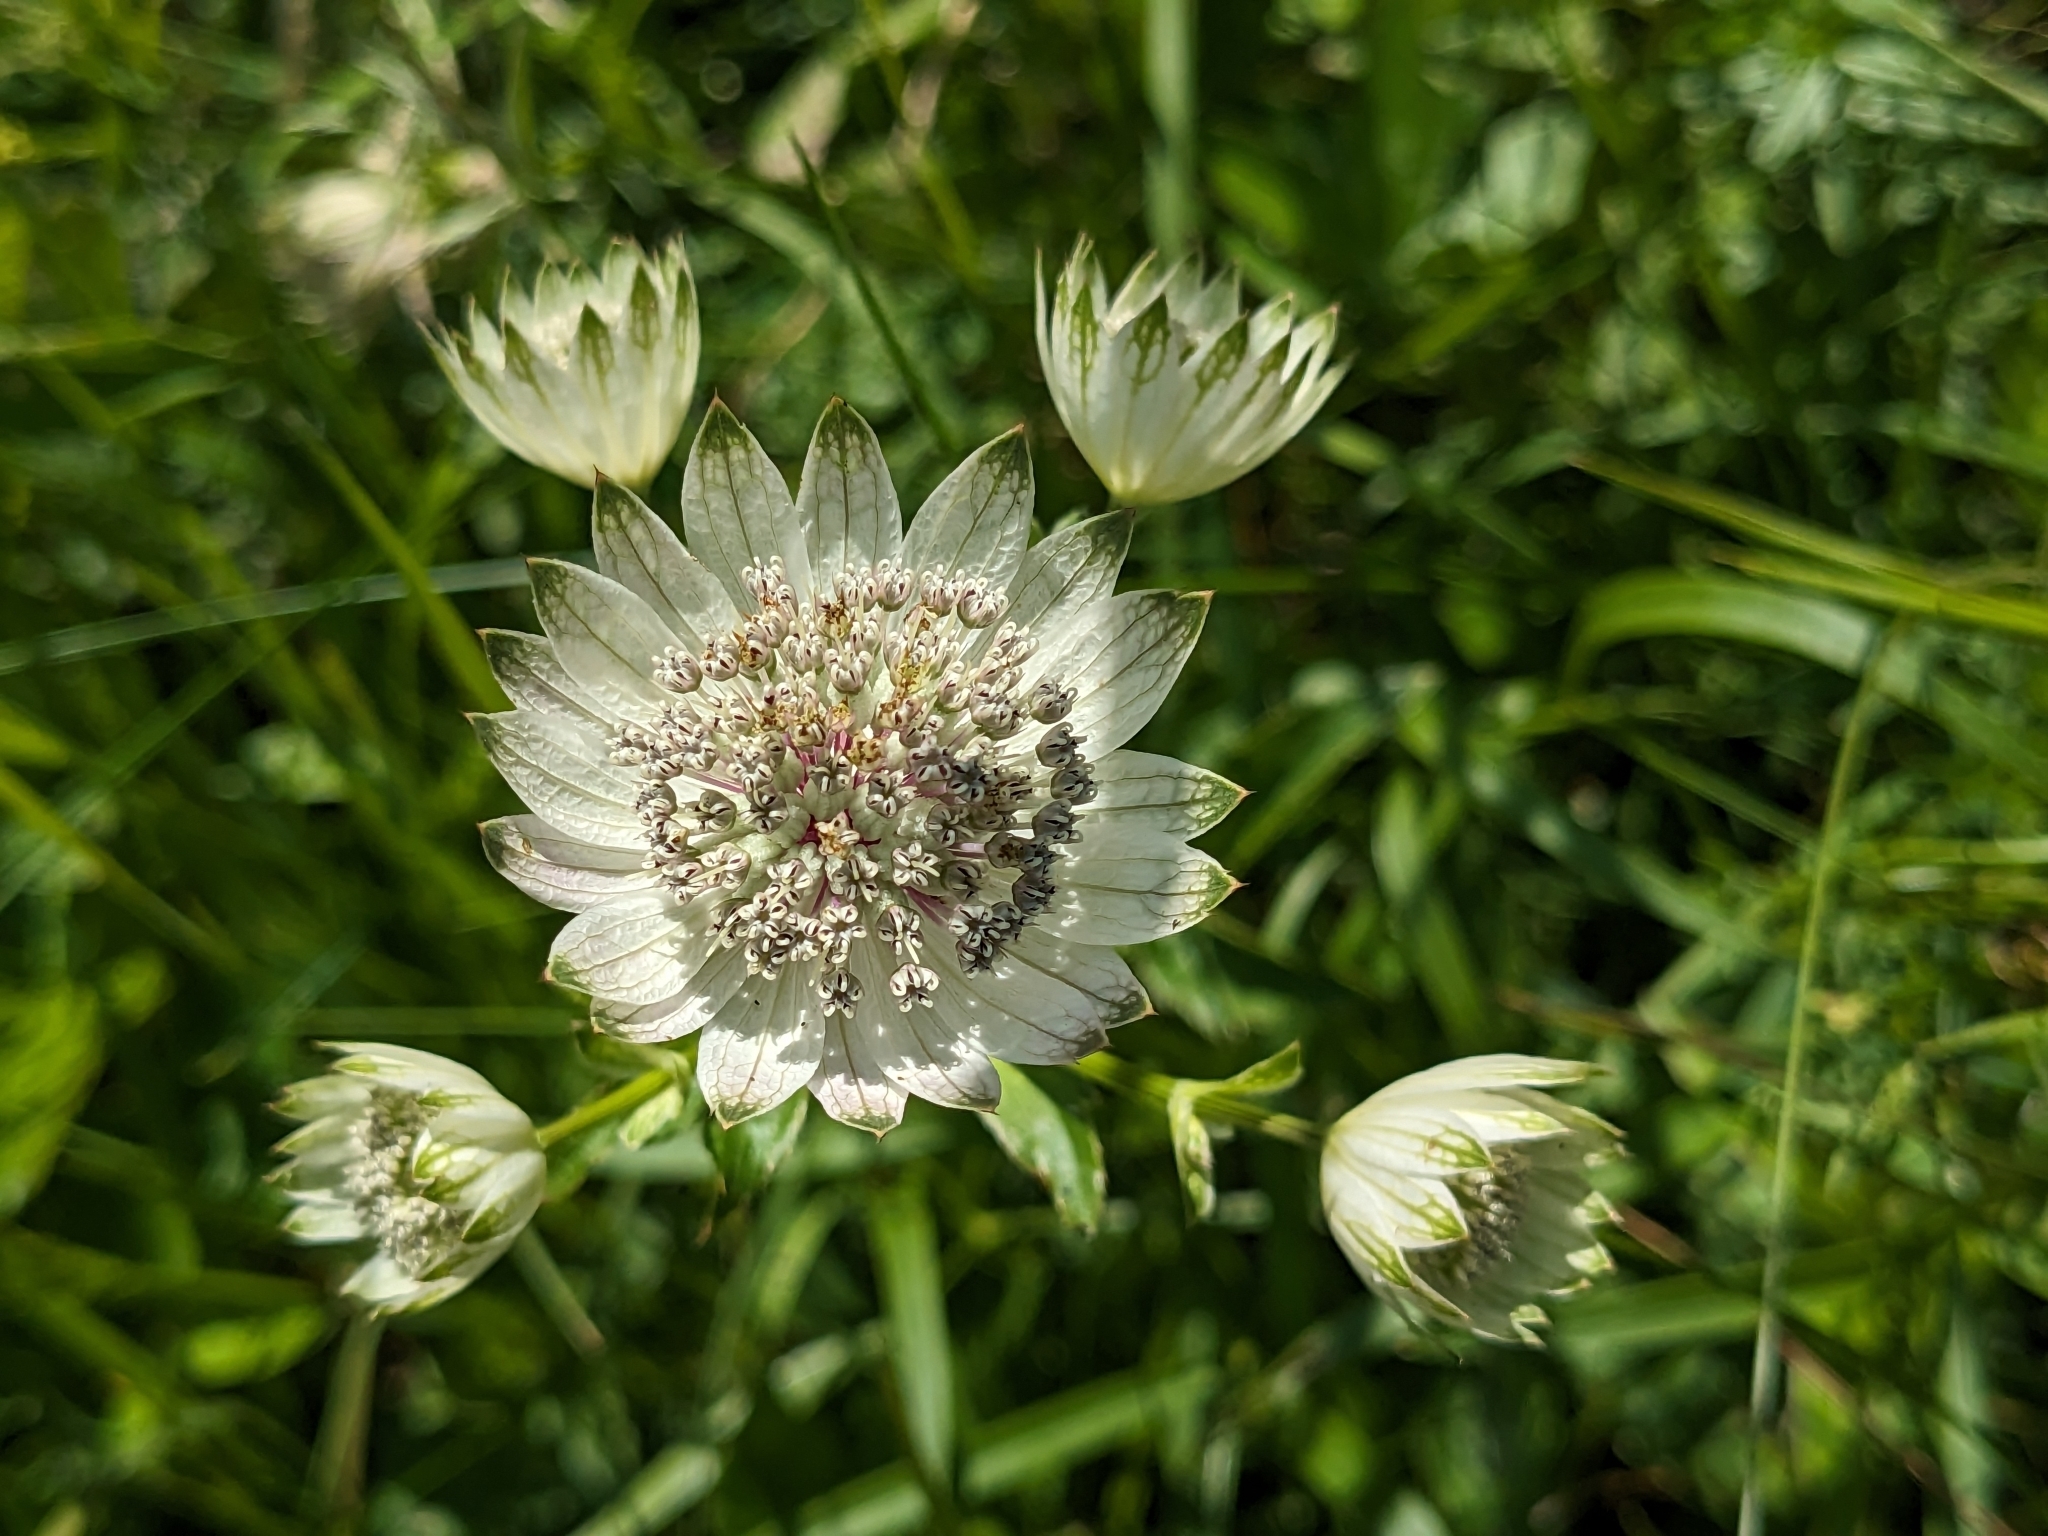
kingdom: Plantae
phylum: Tracheophyta
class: Magnoliopsida
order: Apiales
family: Apiaceae
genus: Astrantia
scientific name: Astrantia major
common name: Greater masterwort
